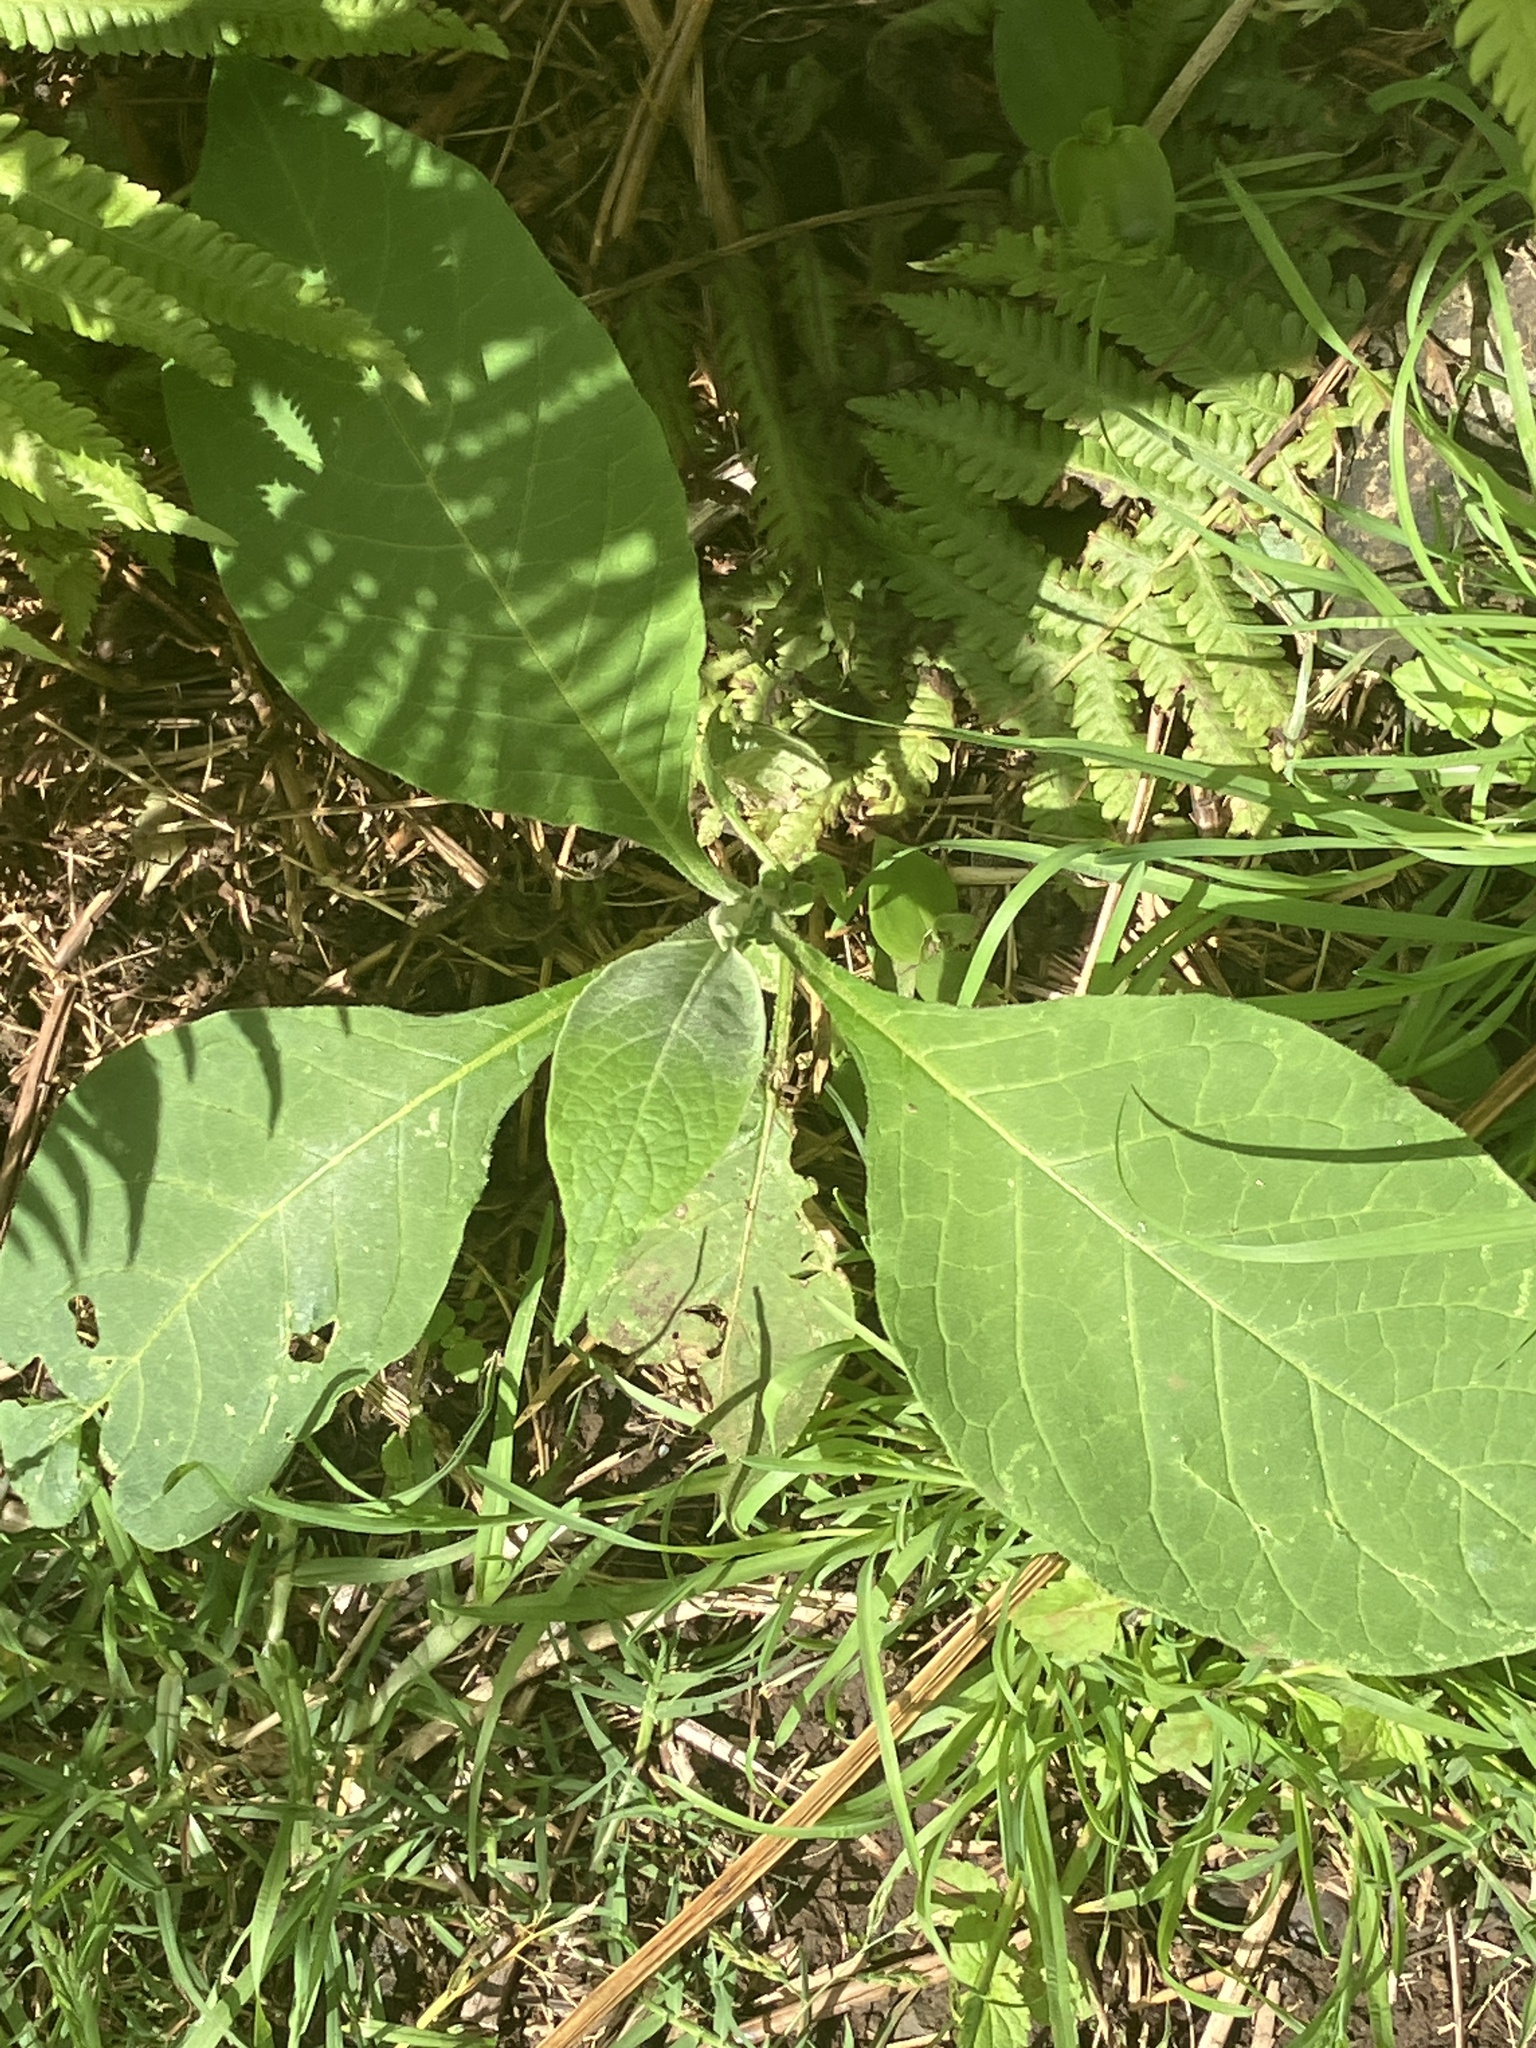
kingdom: Plantae
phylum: Tracheophyta
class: Magnoliopsida
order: Solanales
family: Solanaceae
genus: Solanum
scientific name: Solanum mauritianum
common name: Earleaf nightshade
